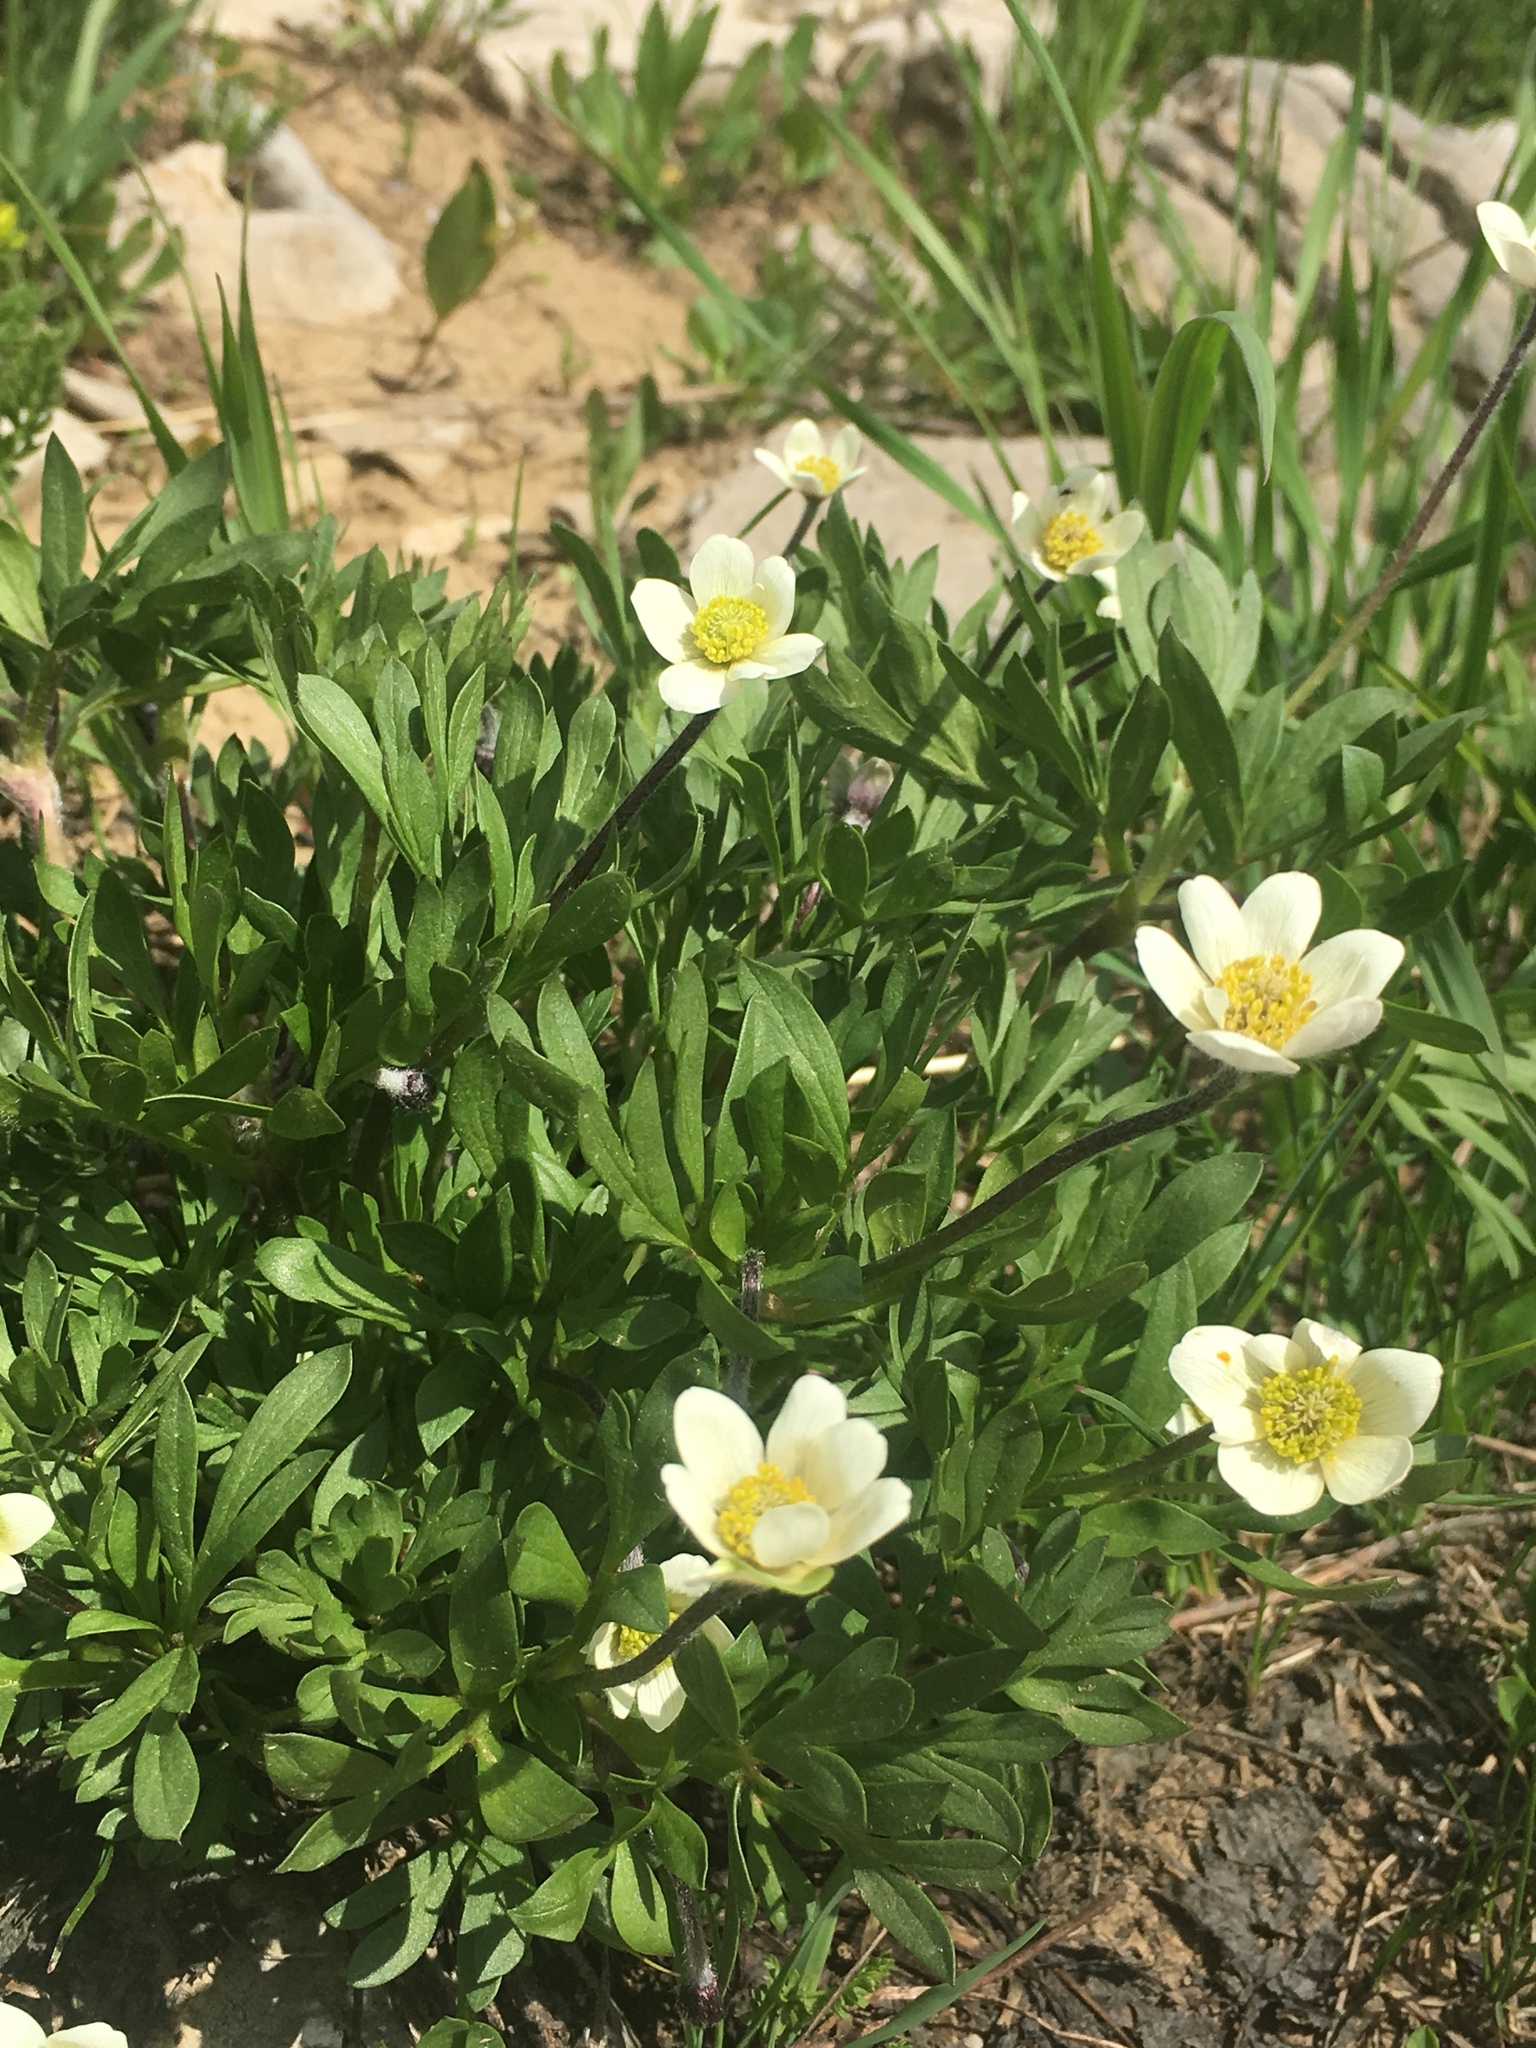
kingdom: Plantae
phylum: Tracheophyta
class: Magnoliopsida
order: Ranunculales
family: Ranunculaceae
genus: Anemone
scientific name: Anemone multifida
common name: Bird's-foot anemone
